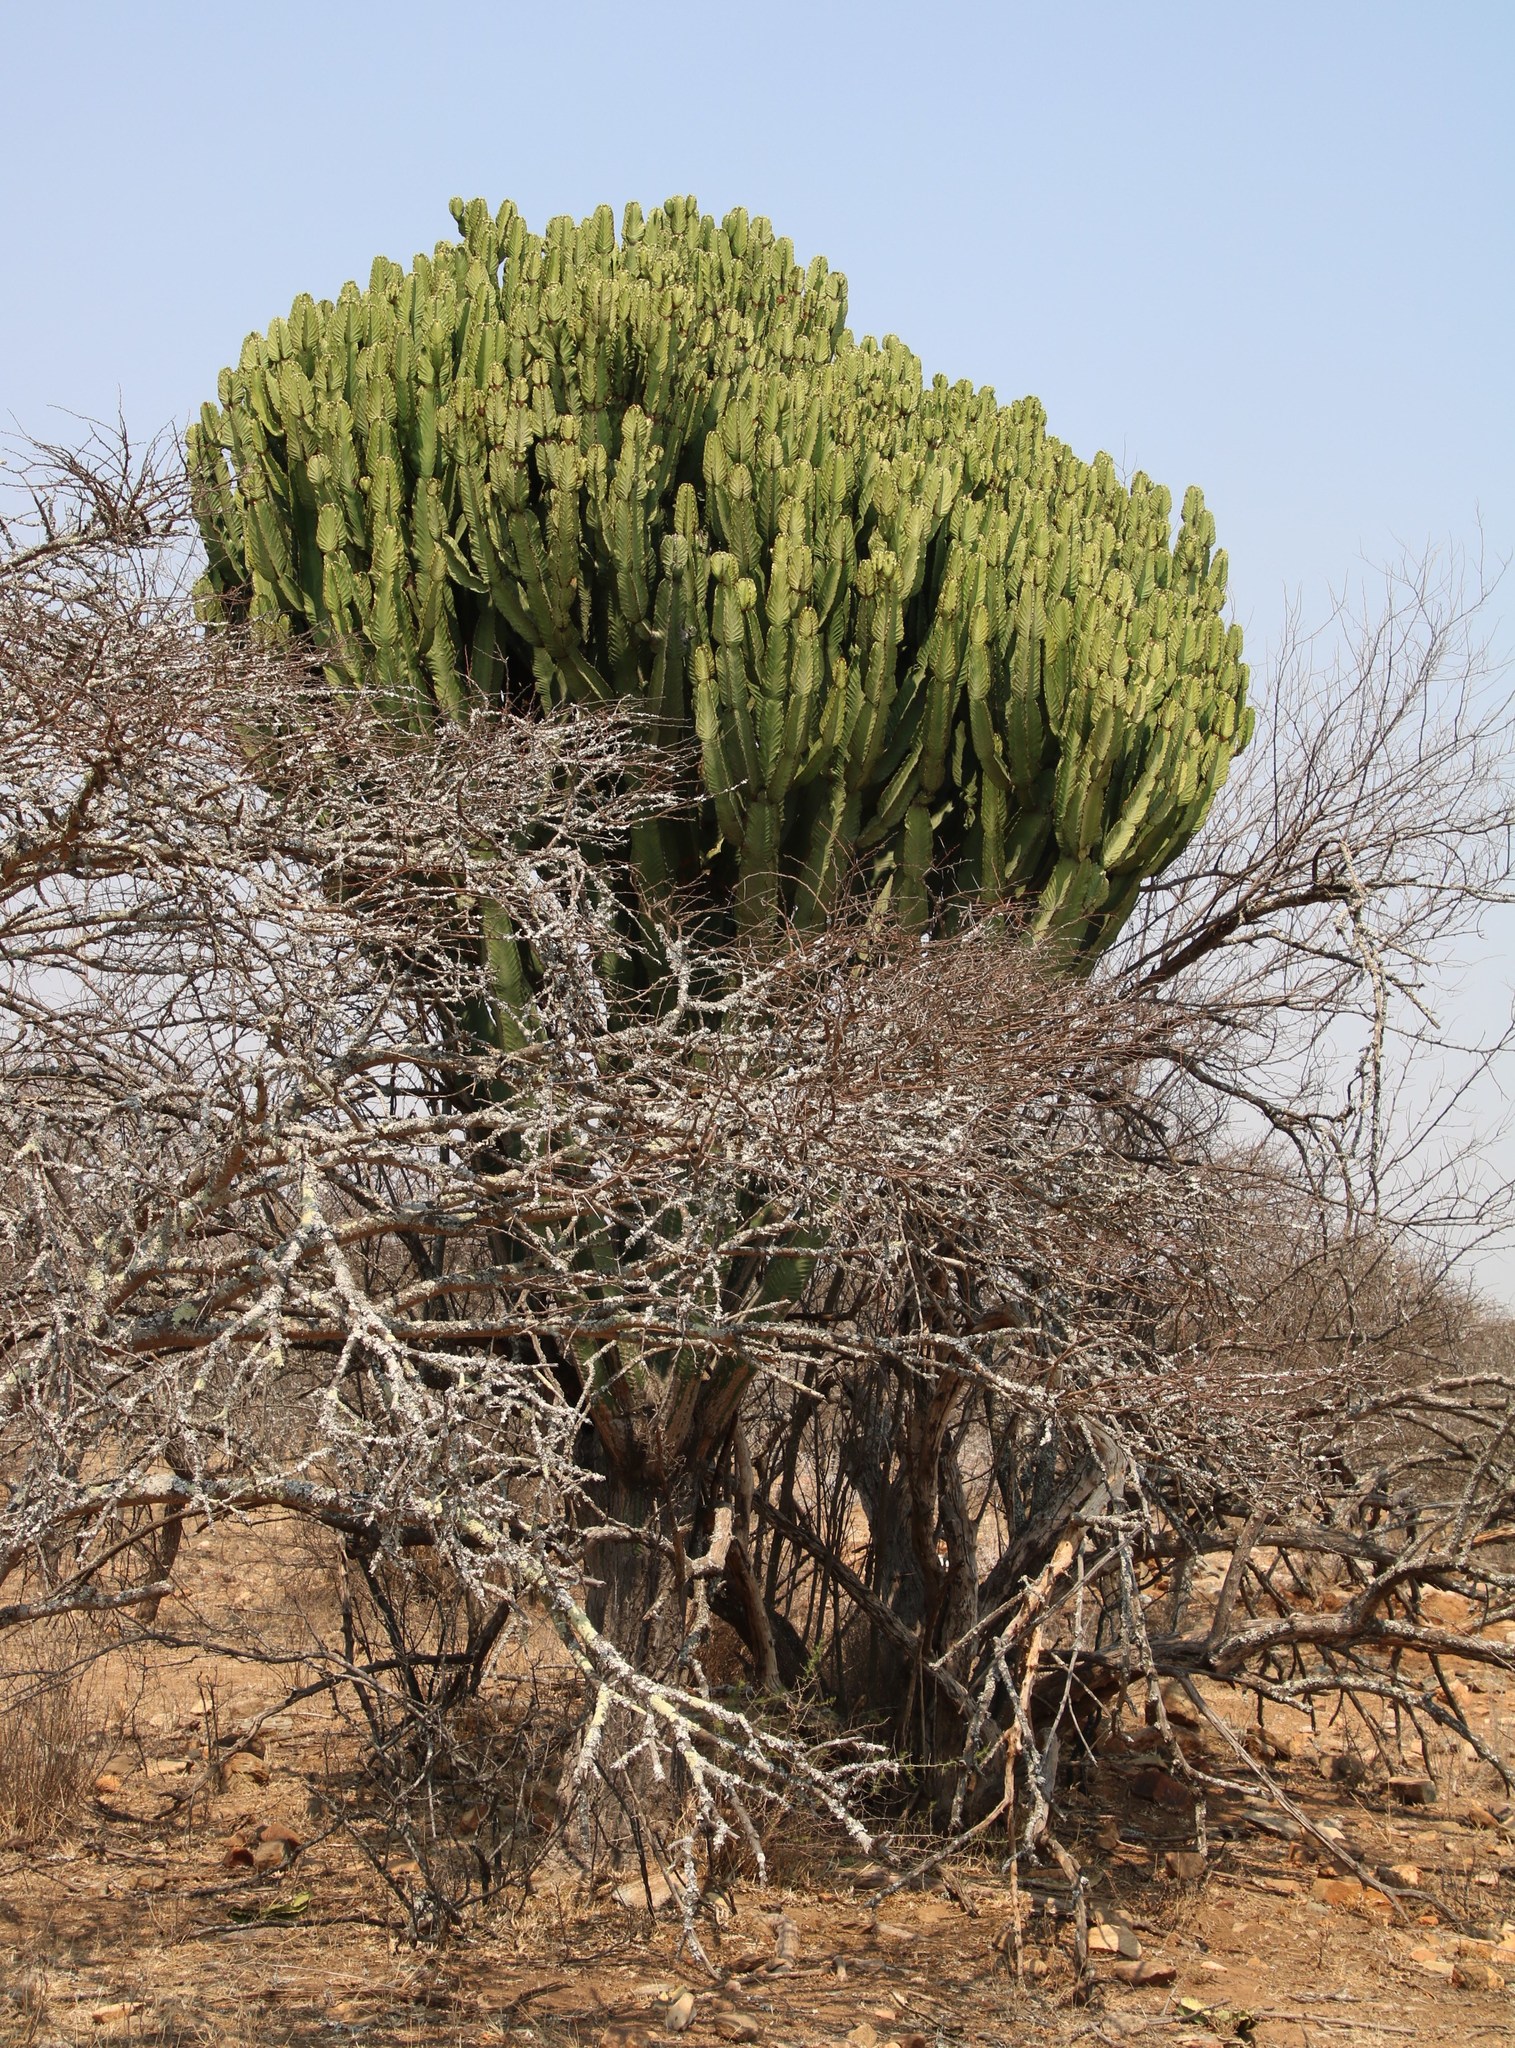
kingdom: Plantae
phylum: Tracheophyta
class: Magnoliopsida
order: Malpighiales
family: Euphorbiaceae
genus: Euphorbia
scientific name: Euphorbia ingens
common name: Cactus spurge
